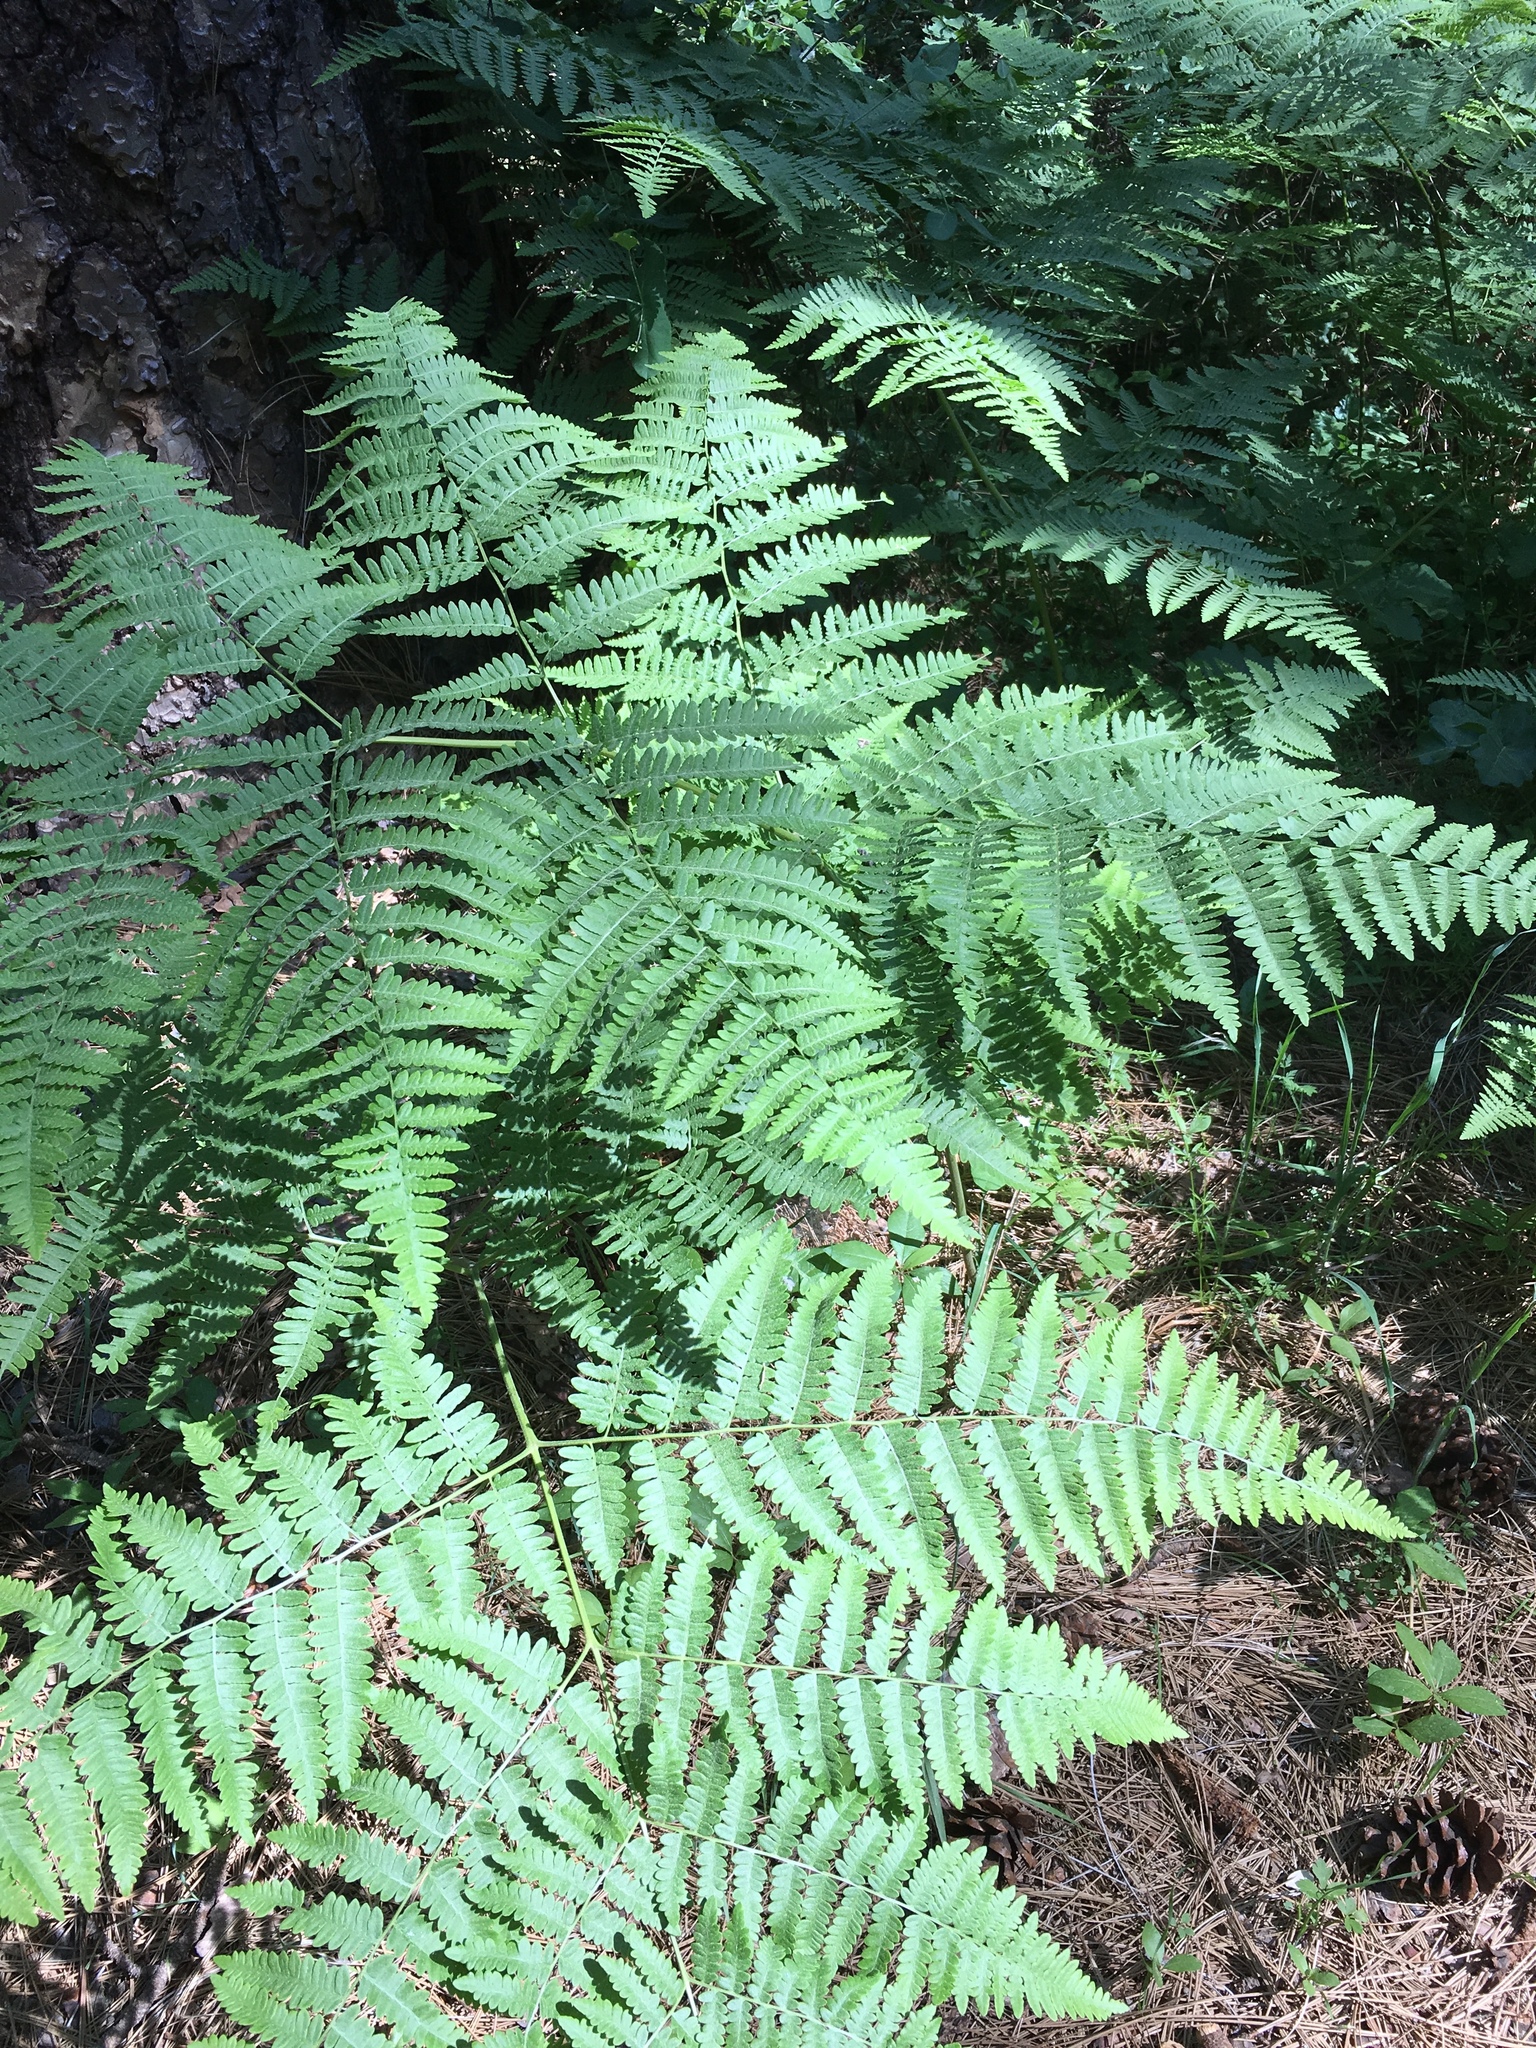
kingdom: Plantae
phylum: Tracheophyta
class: Polypodiopsida
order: Polypodiales
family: Dennstaedtiaceae
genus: Pteridium
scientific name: Pteridium aquilinum
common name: Bracken
